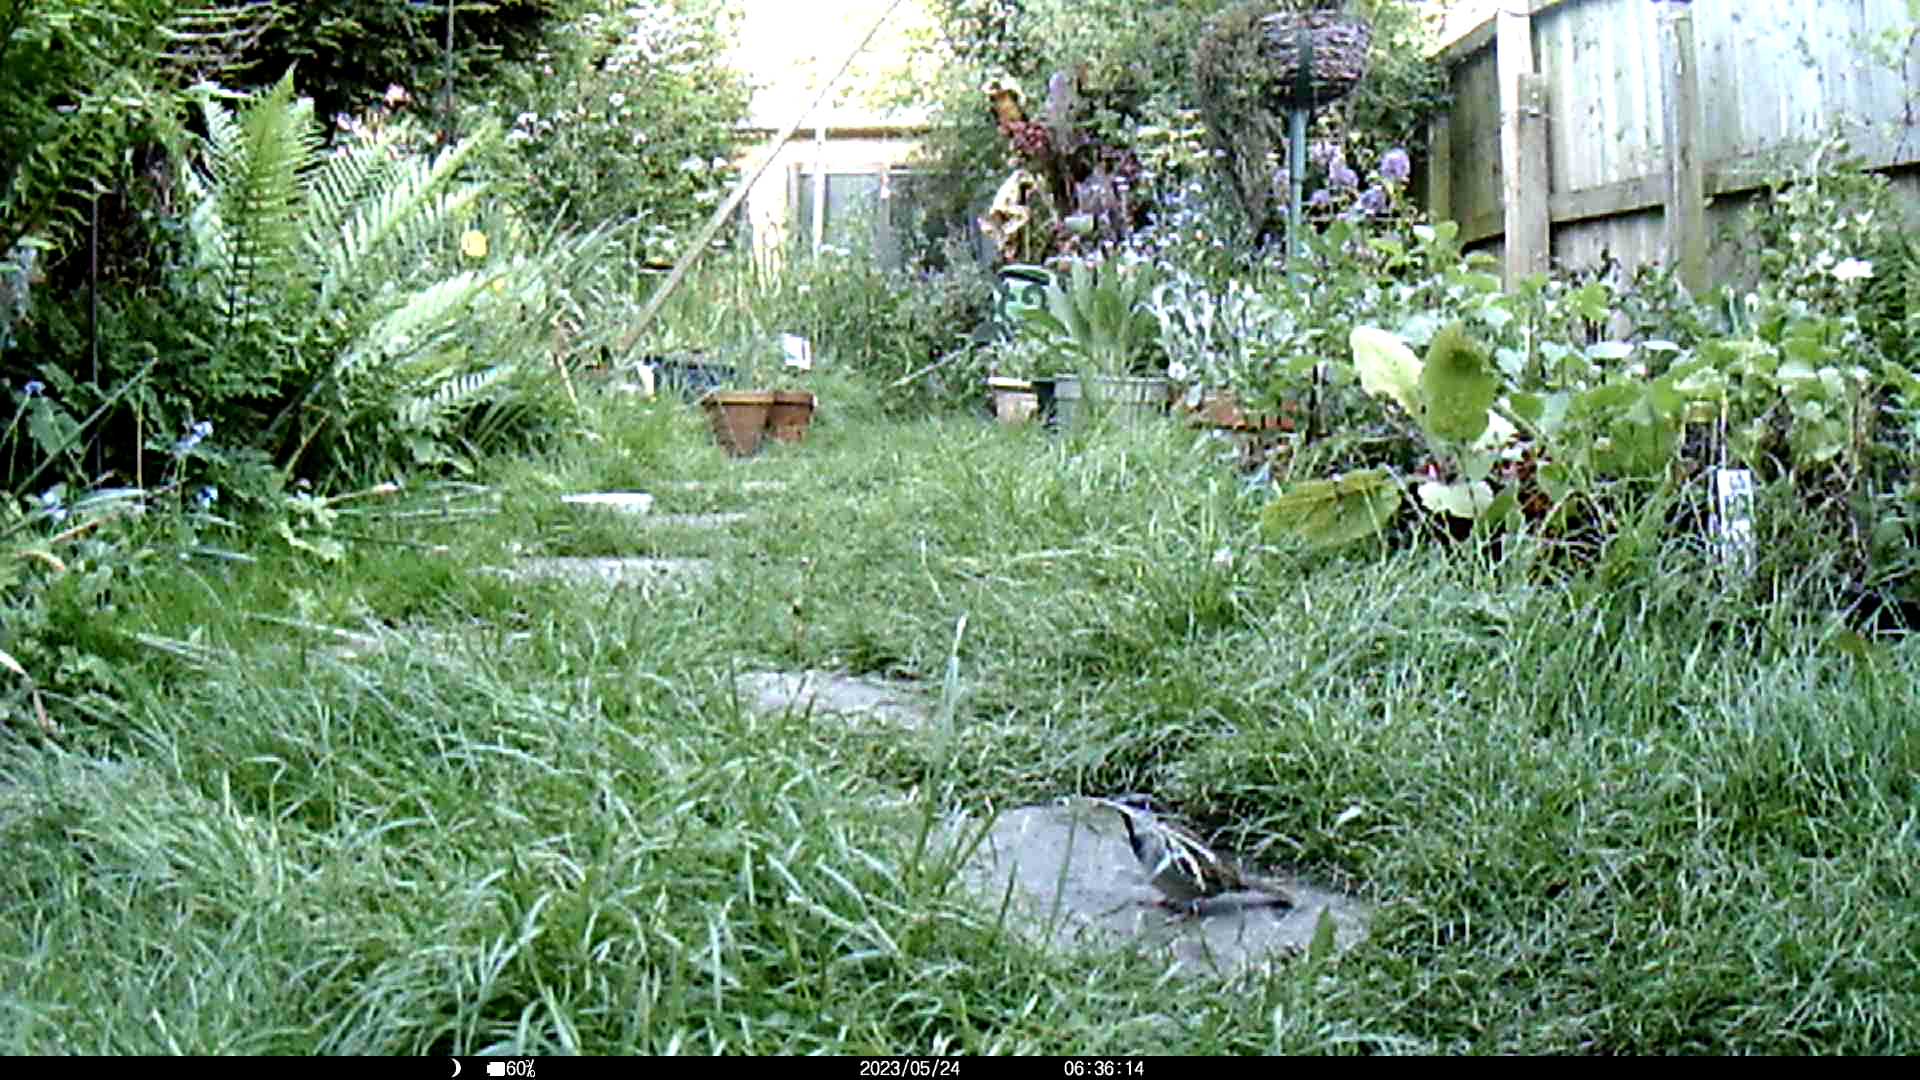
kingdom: Animalia
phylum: Chordata
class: Aves
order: Passeriformes
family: Passeridae
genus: Passer
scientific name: Passer domesticus
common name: House sparrow
